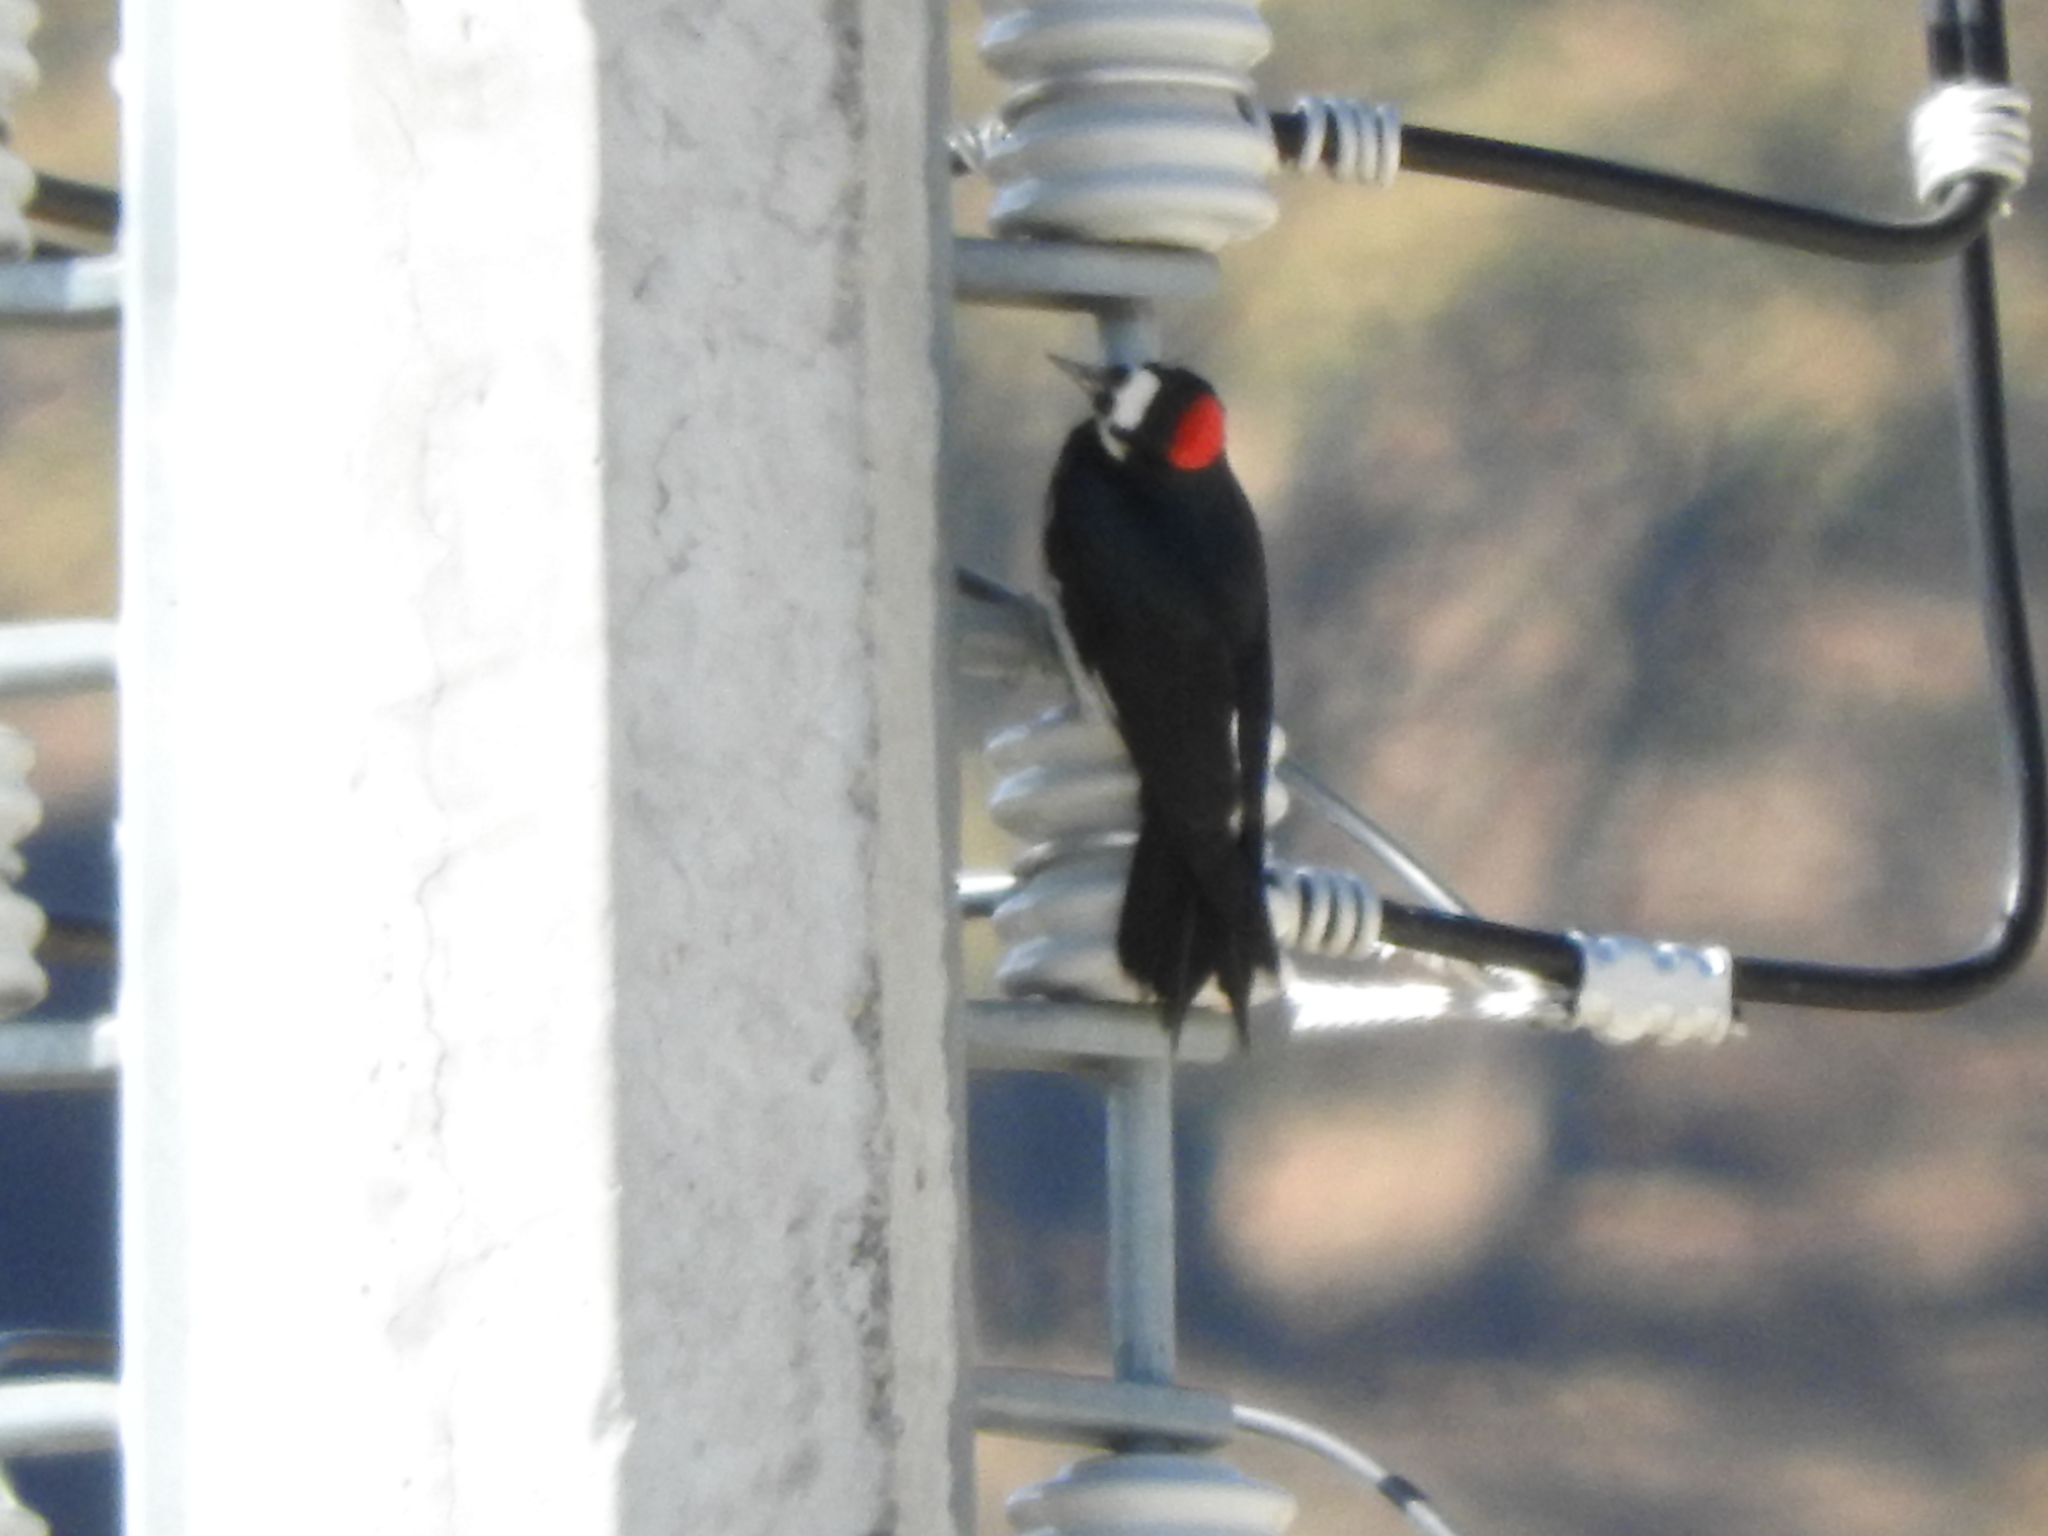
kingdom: Animalia
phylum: Chordata
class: Aves
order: Piciformes
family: Picidae
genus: Melanerpes
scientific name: Melanerpes formicivorus
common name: Acorn woodpecker
